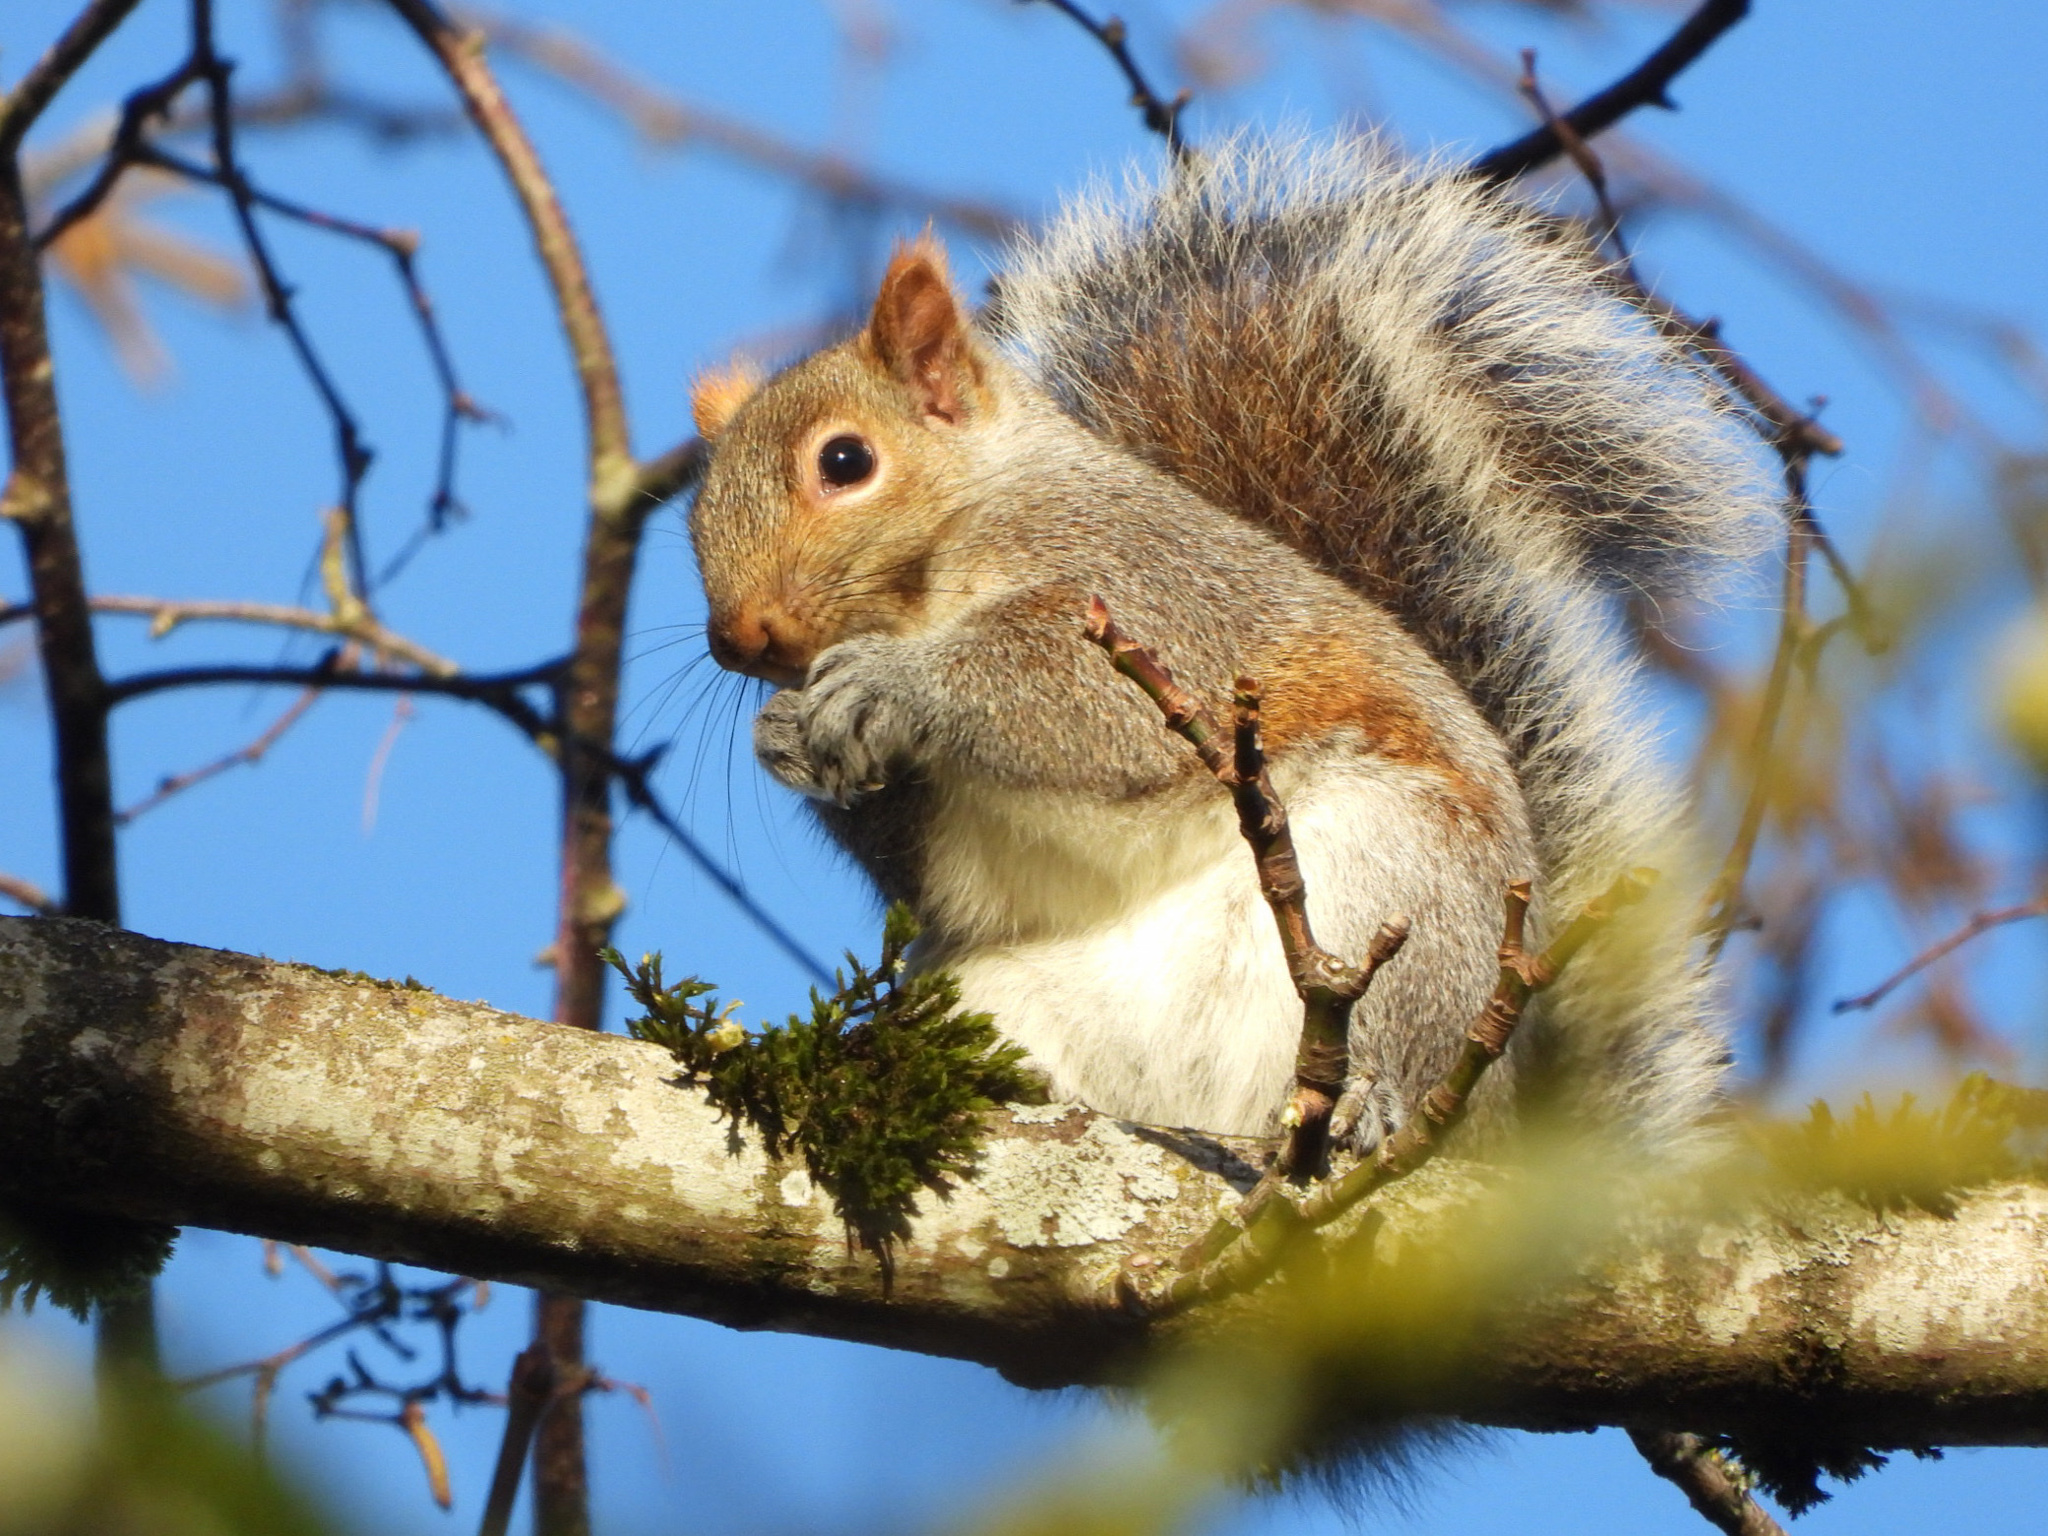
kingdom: Animalia
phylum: Chordata
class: Mammalia
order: Rodentia
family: Sciuridae
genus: Sciurus
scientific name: Sciurus carolinensis
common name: Eastern gray squirrel
